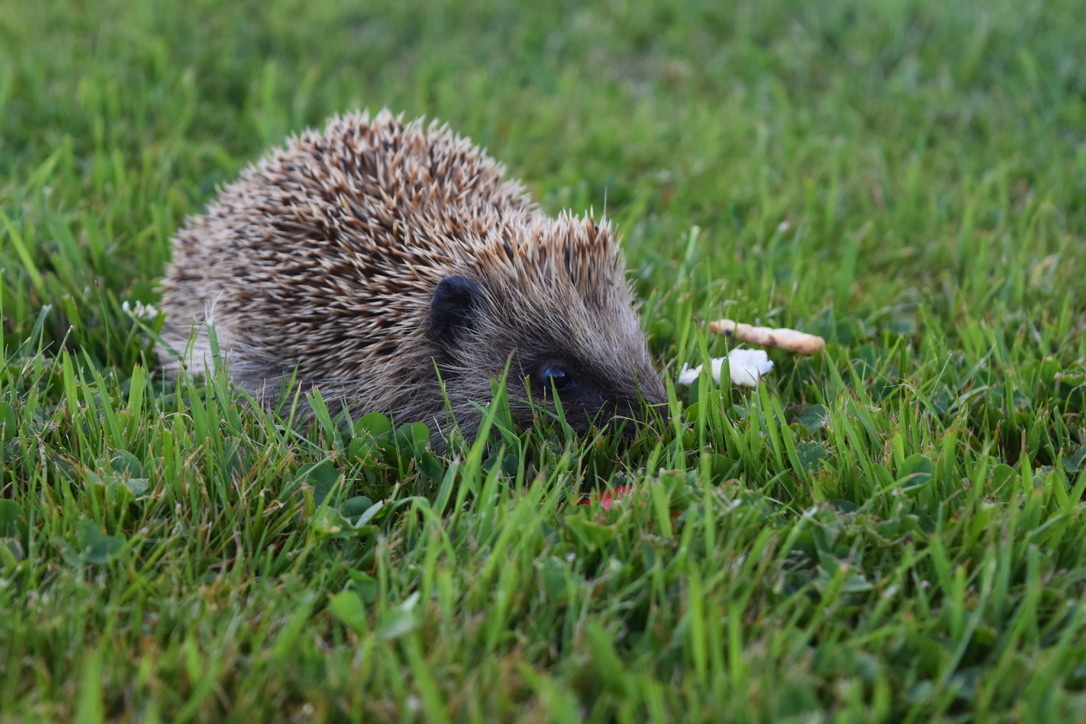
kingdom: Animalia
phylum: Chordata
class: Mammalia
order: Erinaceomorpha
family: Erinaceidae
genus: Erinaceus
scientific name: Erinaceus europaeus
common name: West european hedgehog
